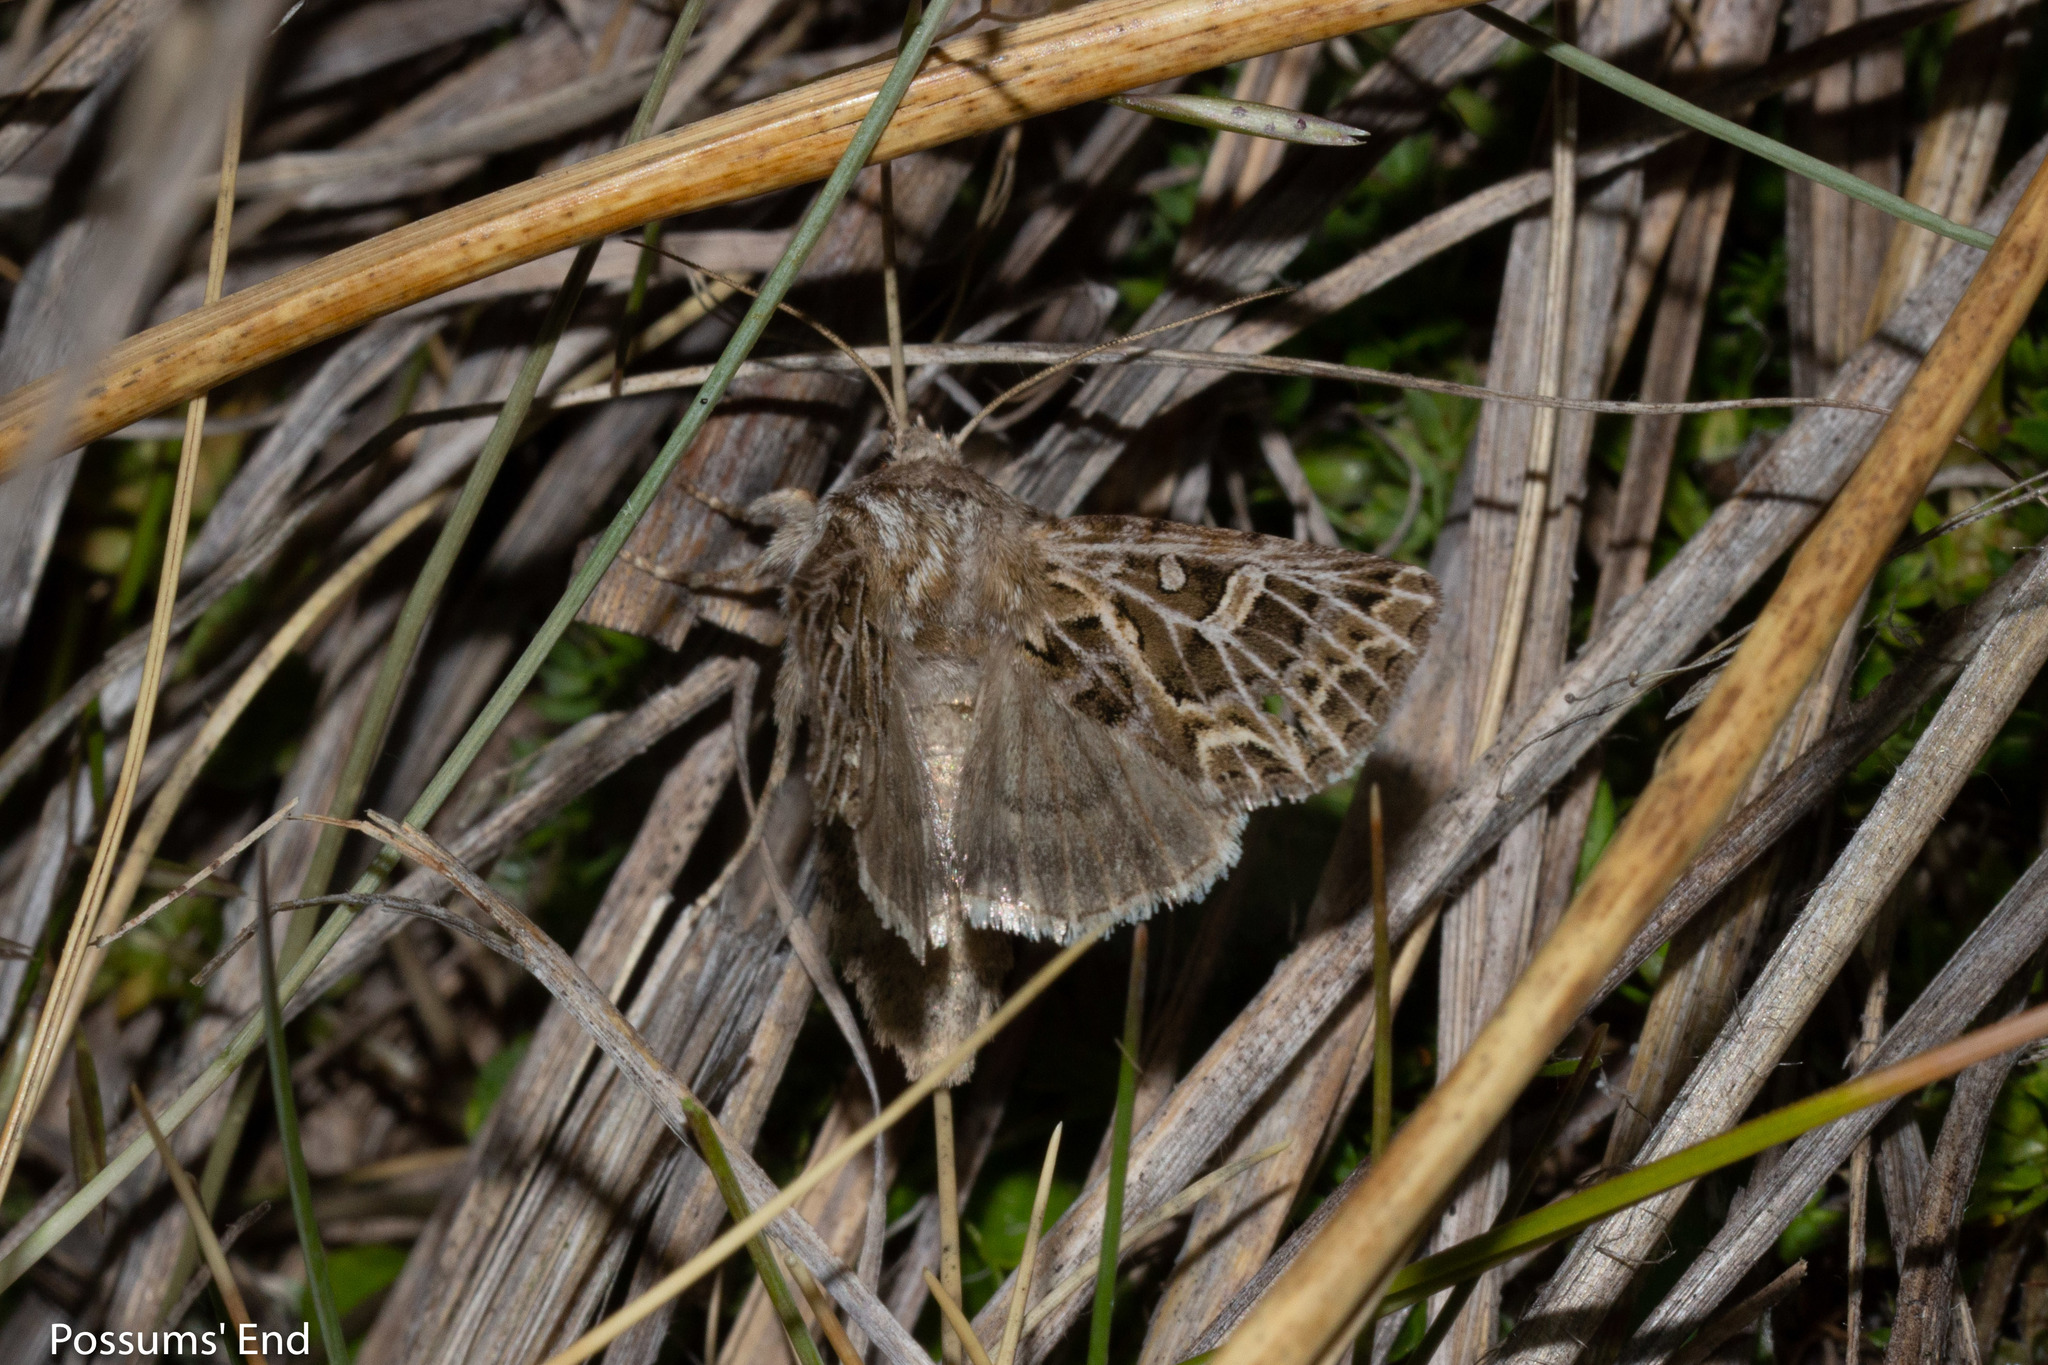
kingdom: Animalia
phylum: Arthropoda
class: Insecta
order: Lepidoptera
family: Noctuidae
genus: Ichneutica
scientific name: Ichneutica
